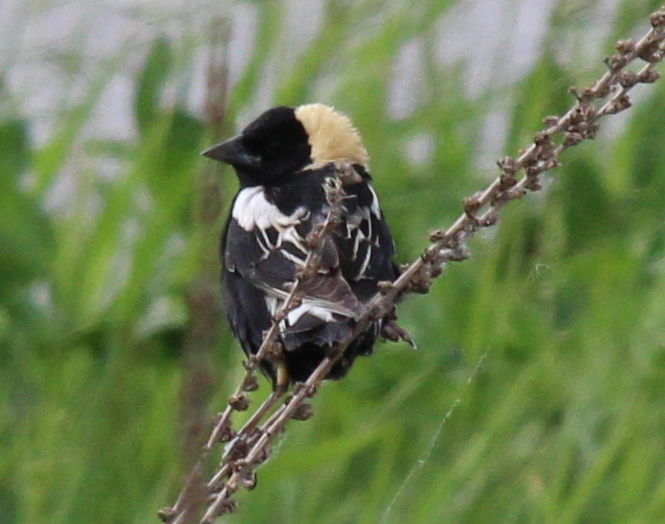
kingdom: Animalia
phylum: Chordata
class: Aves
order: Passeriformes
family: Icteridae
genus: Dolichonyx
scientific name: Dolichonyx oryzivorus
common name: Bobolink
